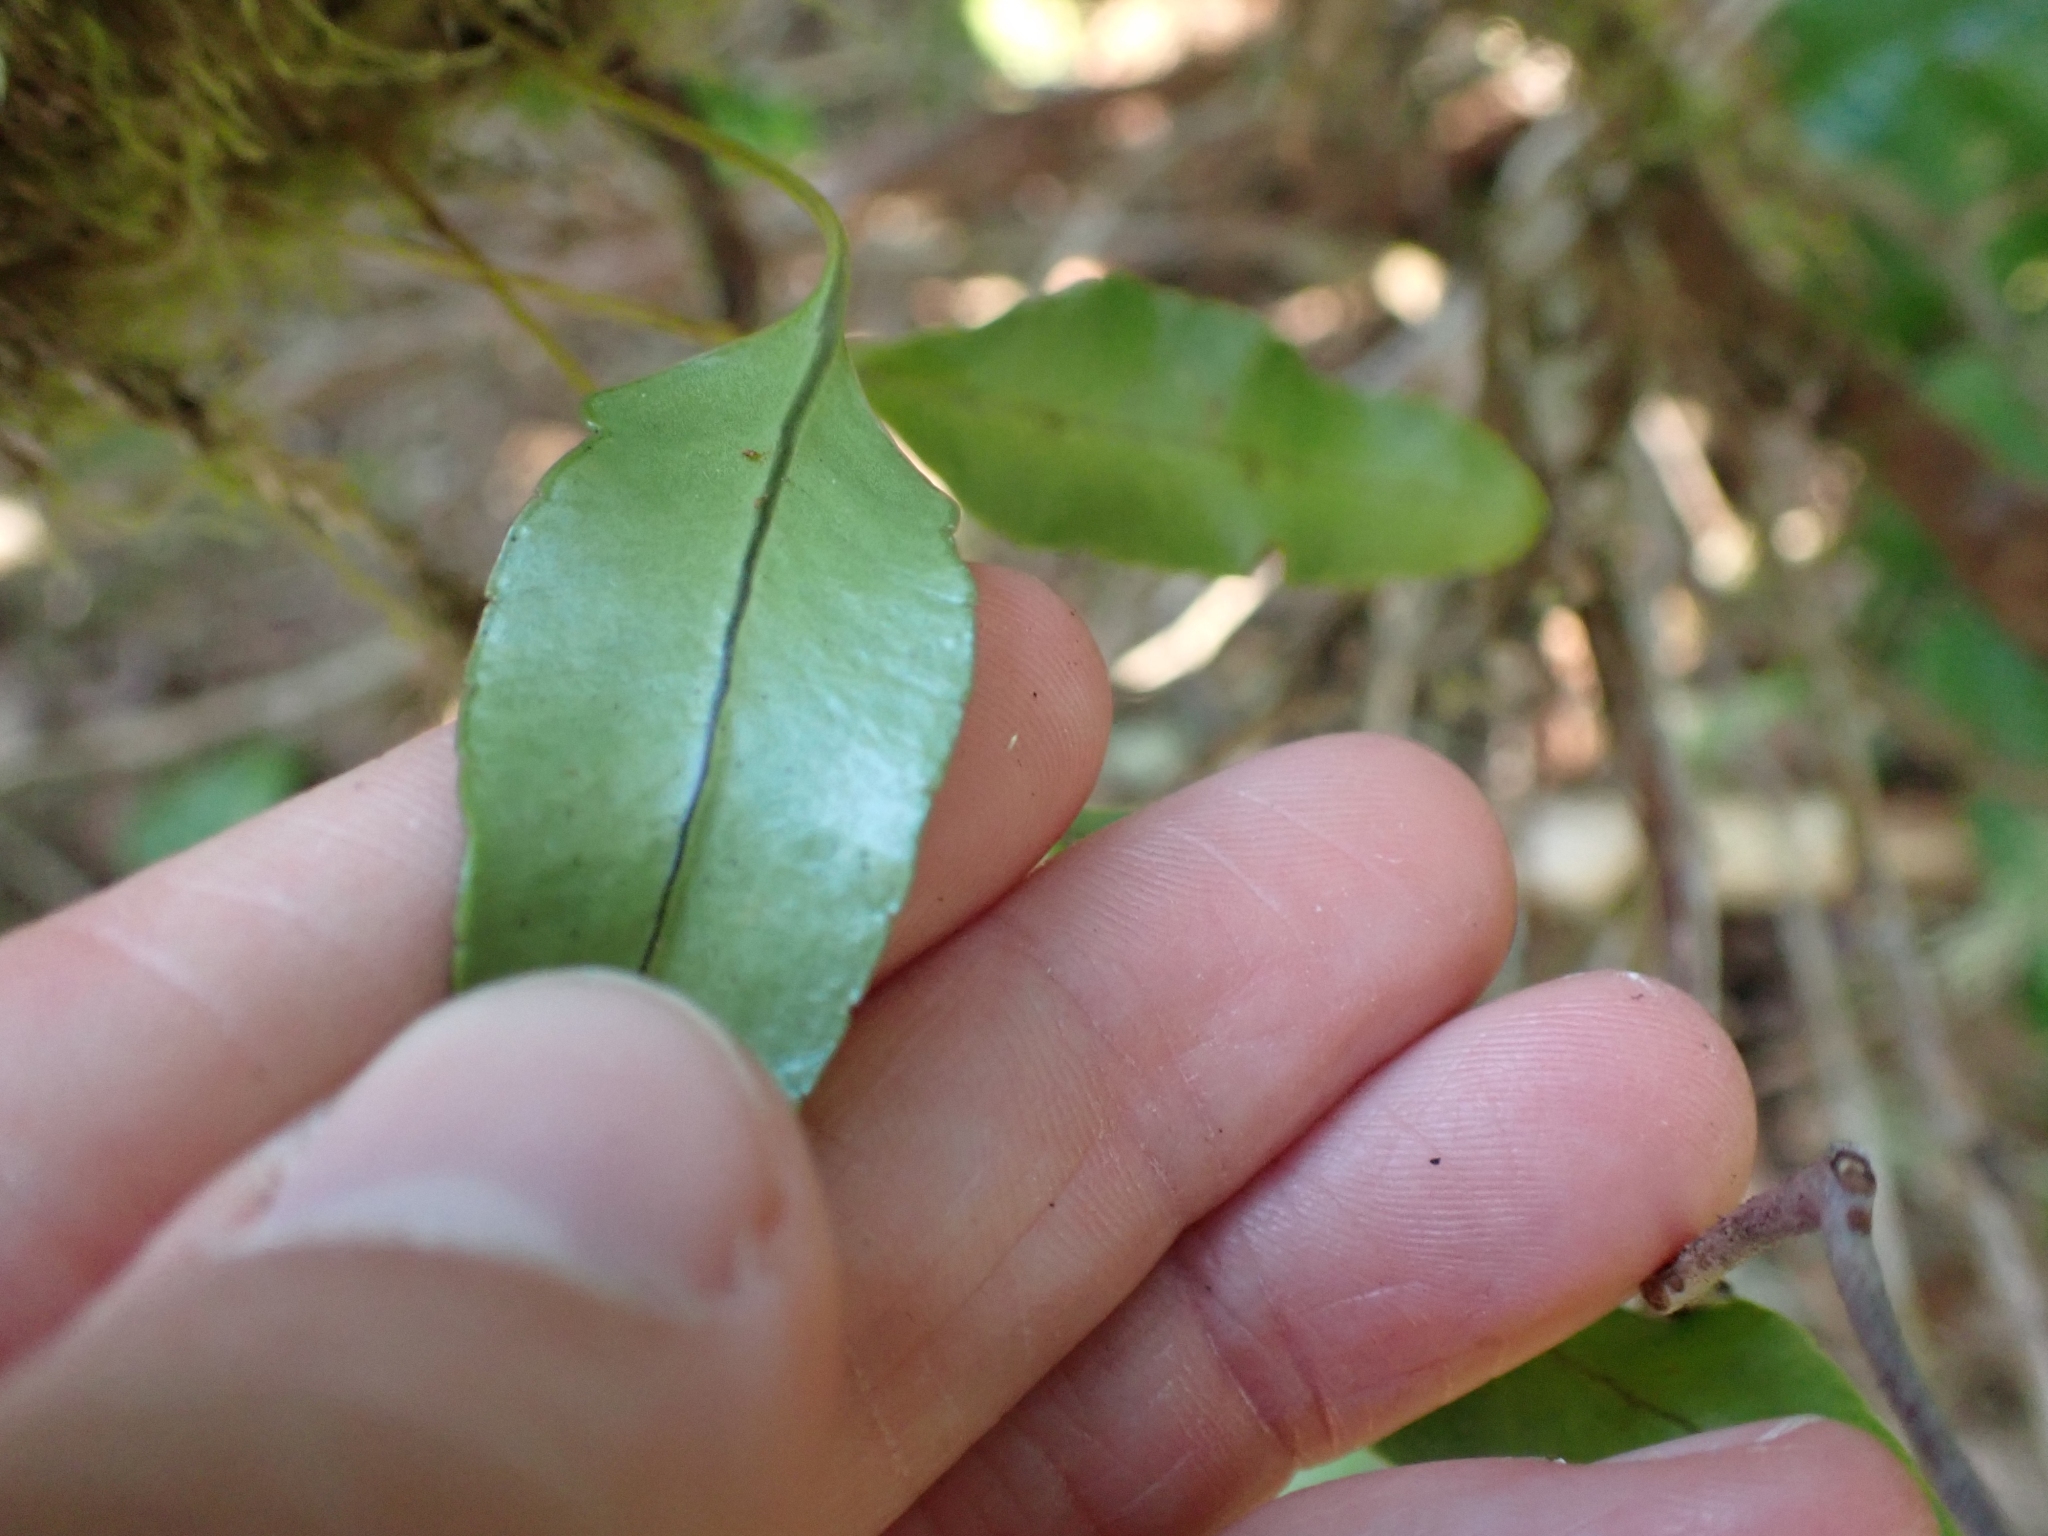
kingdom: Plantae
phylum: Tracheophyta
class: Polypodiopsida
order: Polypodiales
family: Polypodiaceae
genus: Polypodium
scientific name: Polypodium scouleri
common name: Scouler's polypody
